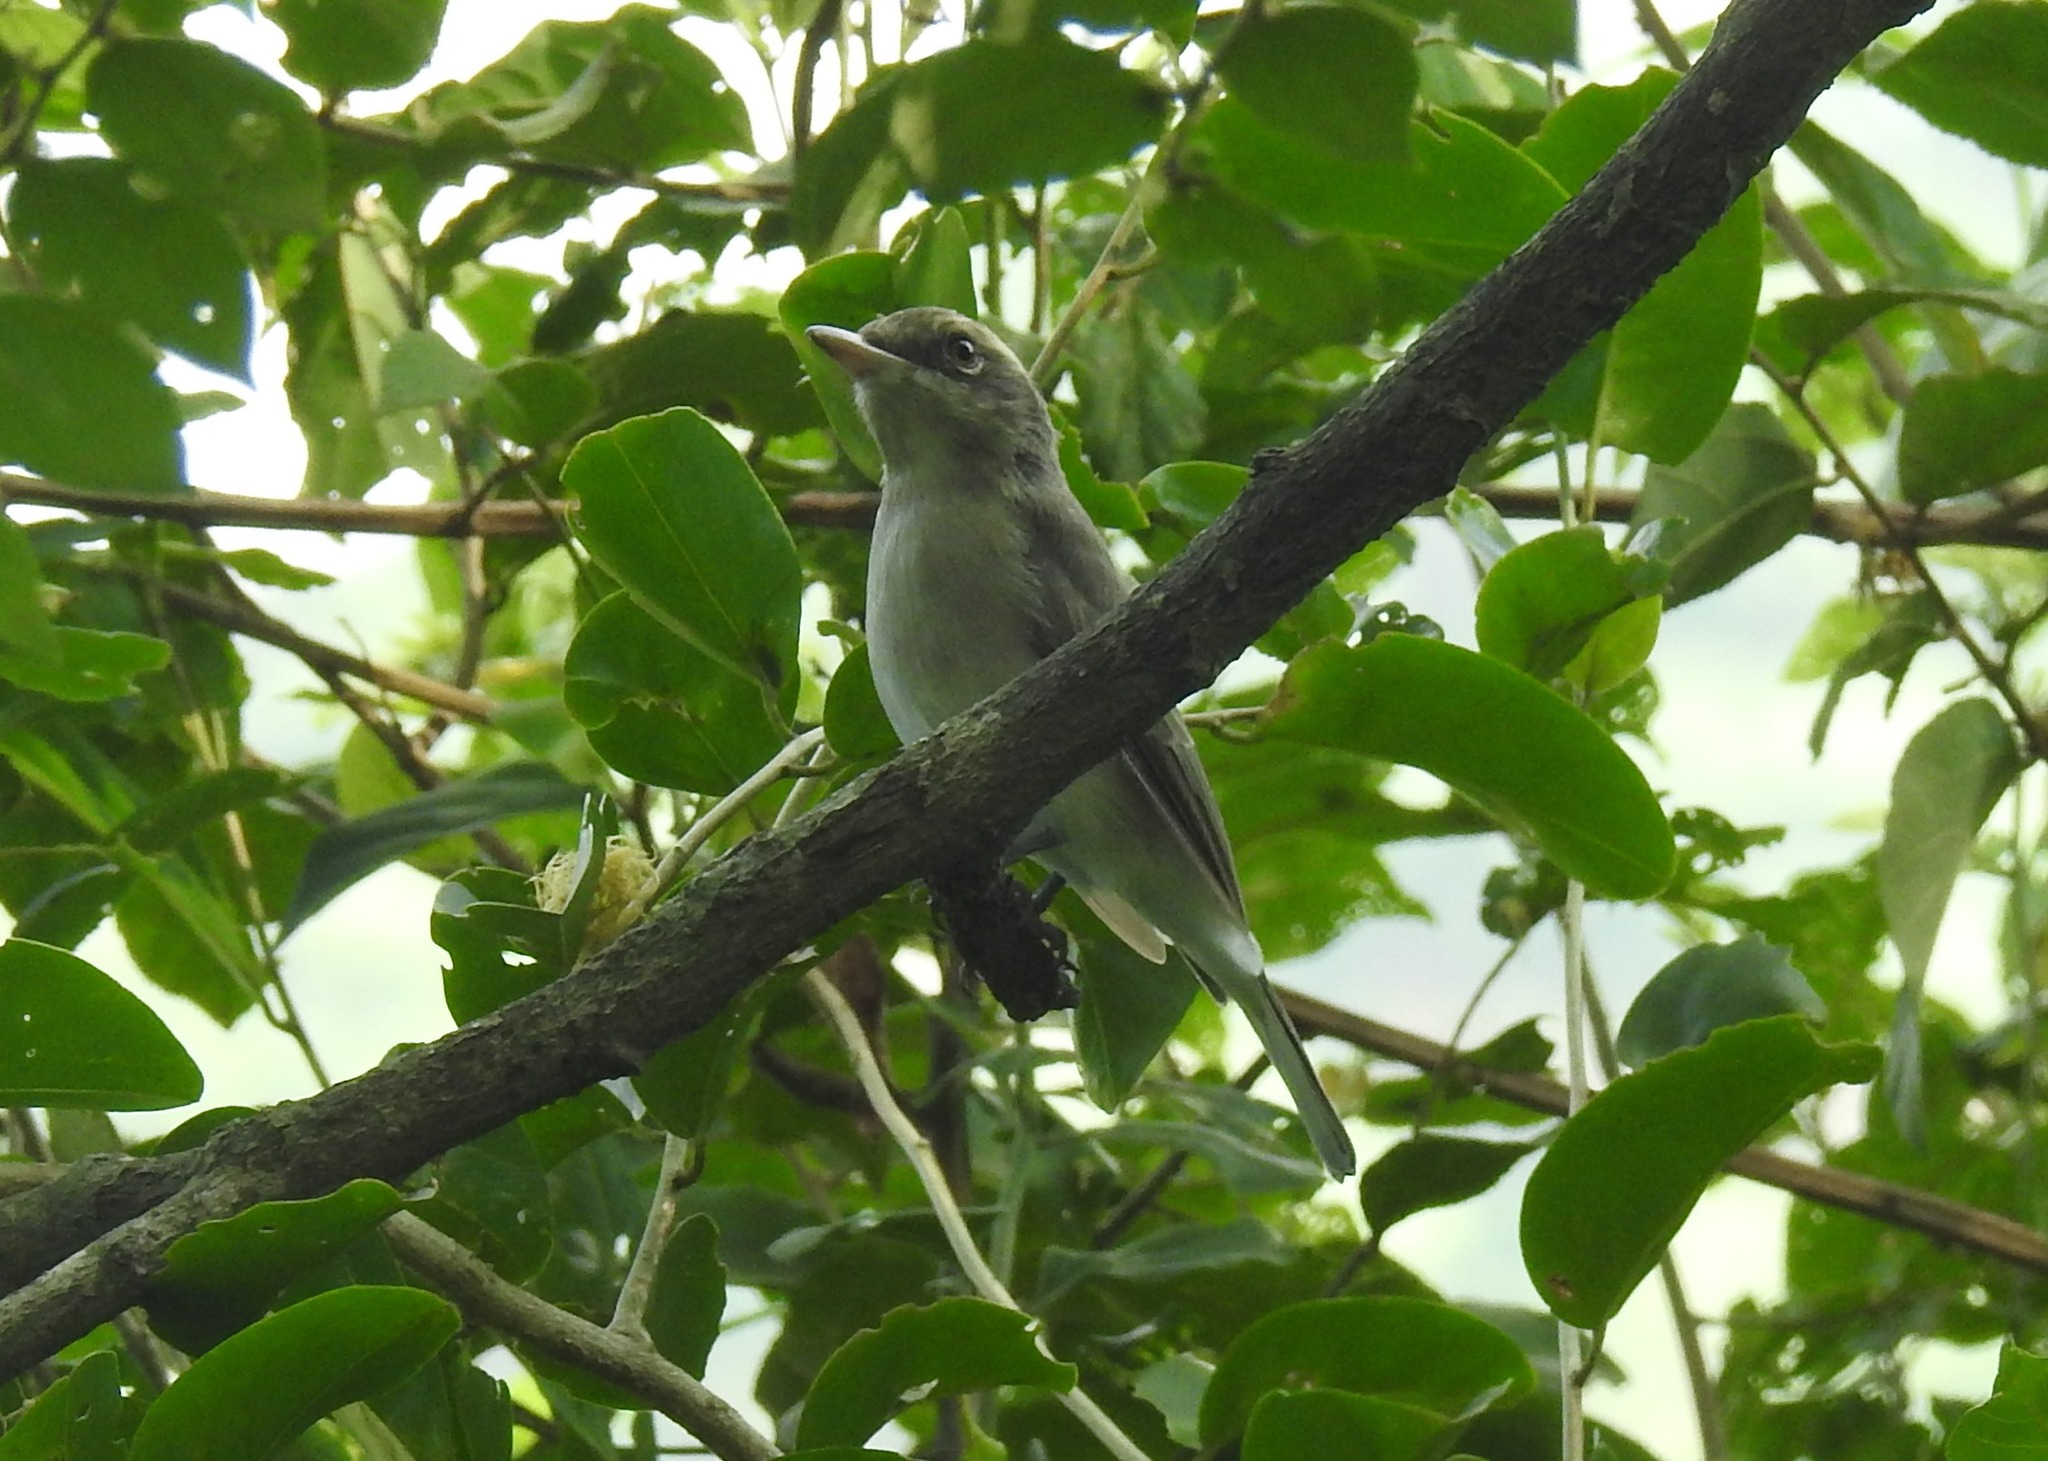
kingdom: Animalia
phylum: Chordata
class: Aves
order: Passeriformes
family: Tephrodornithidae
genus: Tephrodornis
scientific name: Tephrodornis pondicerianus
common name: Common woodshrike
